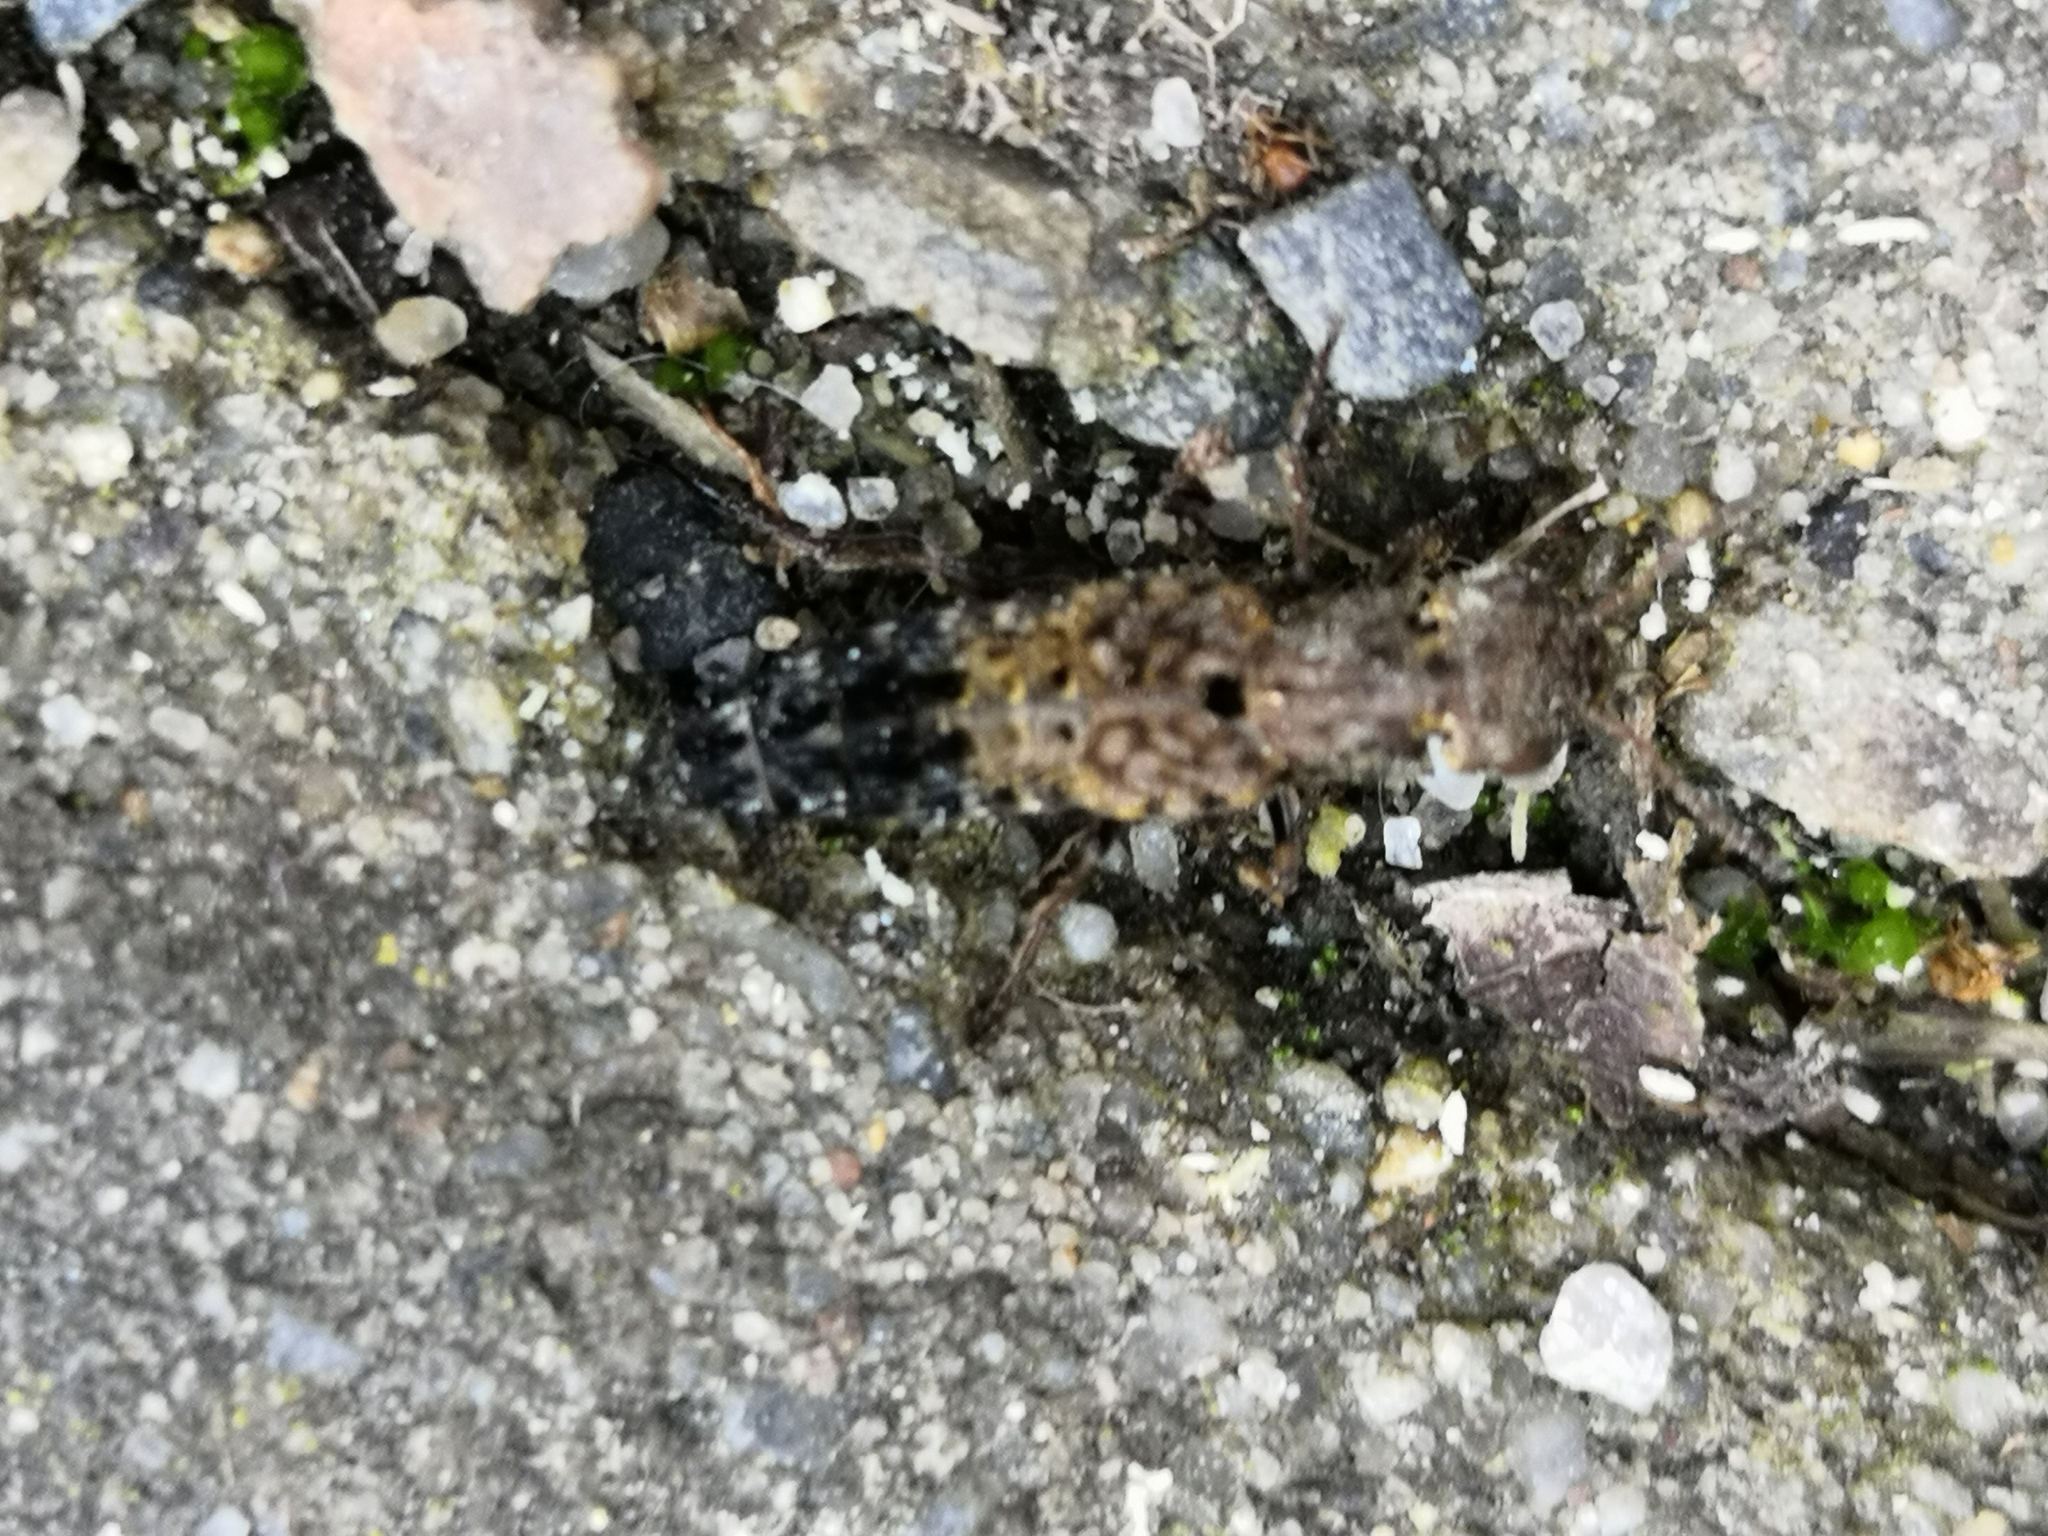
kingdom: Animalia
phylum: Arthropoda
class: Insecta
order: Coleoptera
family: Staphylinidae
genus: Ontholestes
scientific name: Ontholestes haroldi
